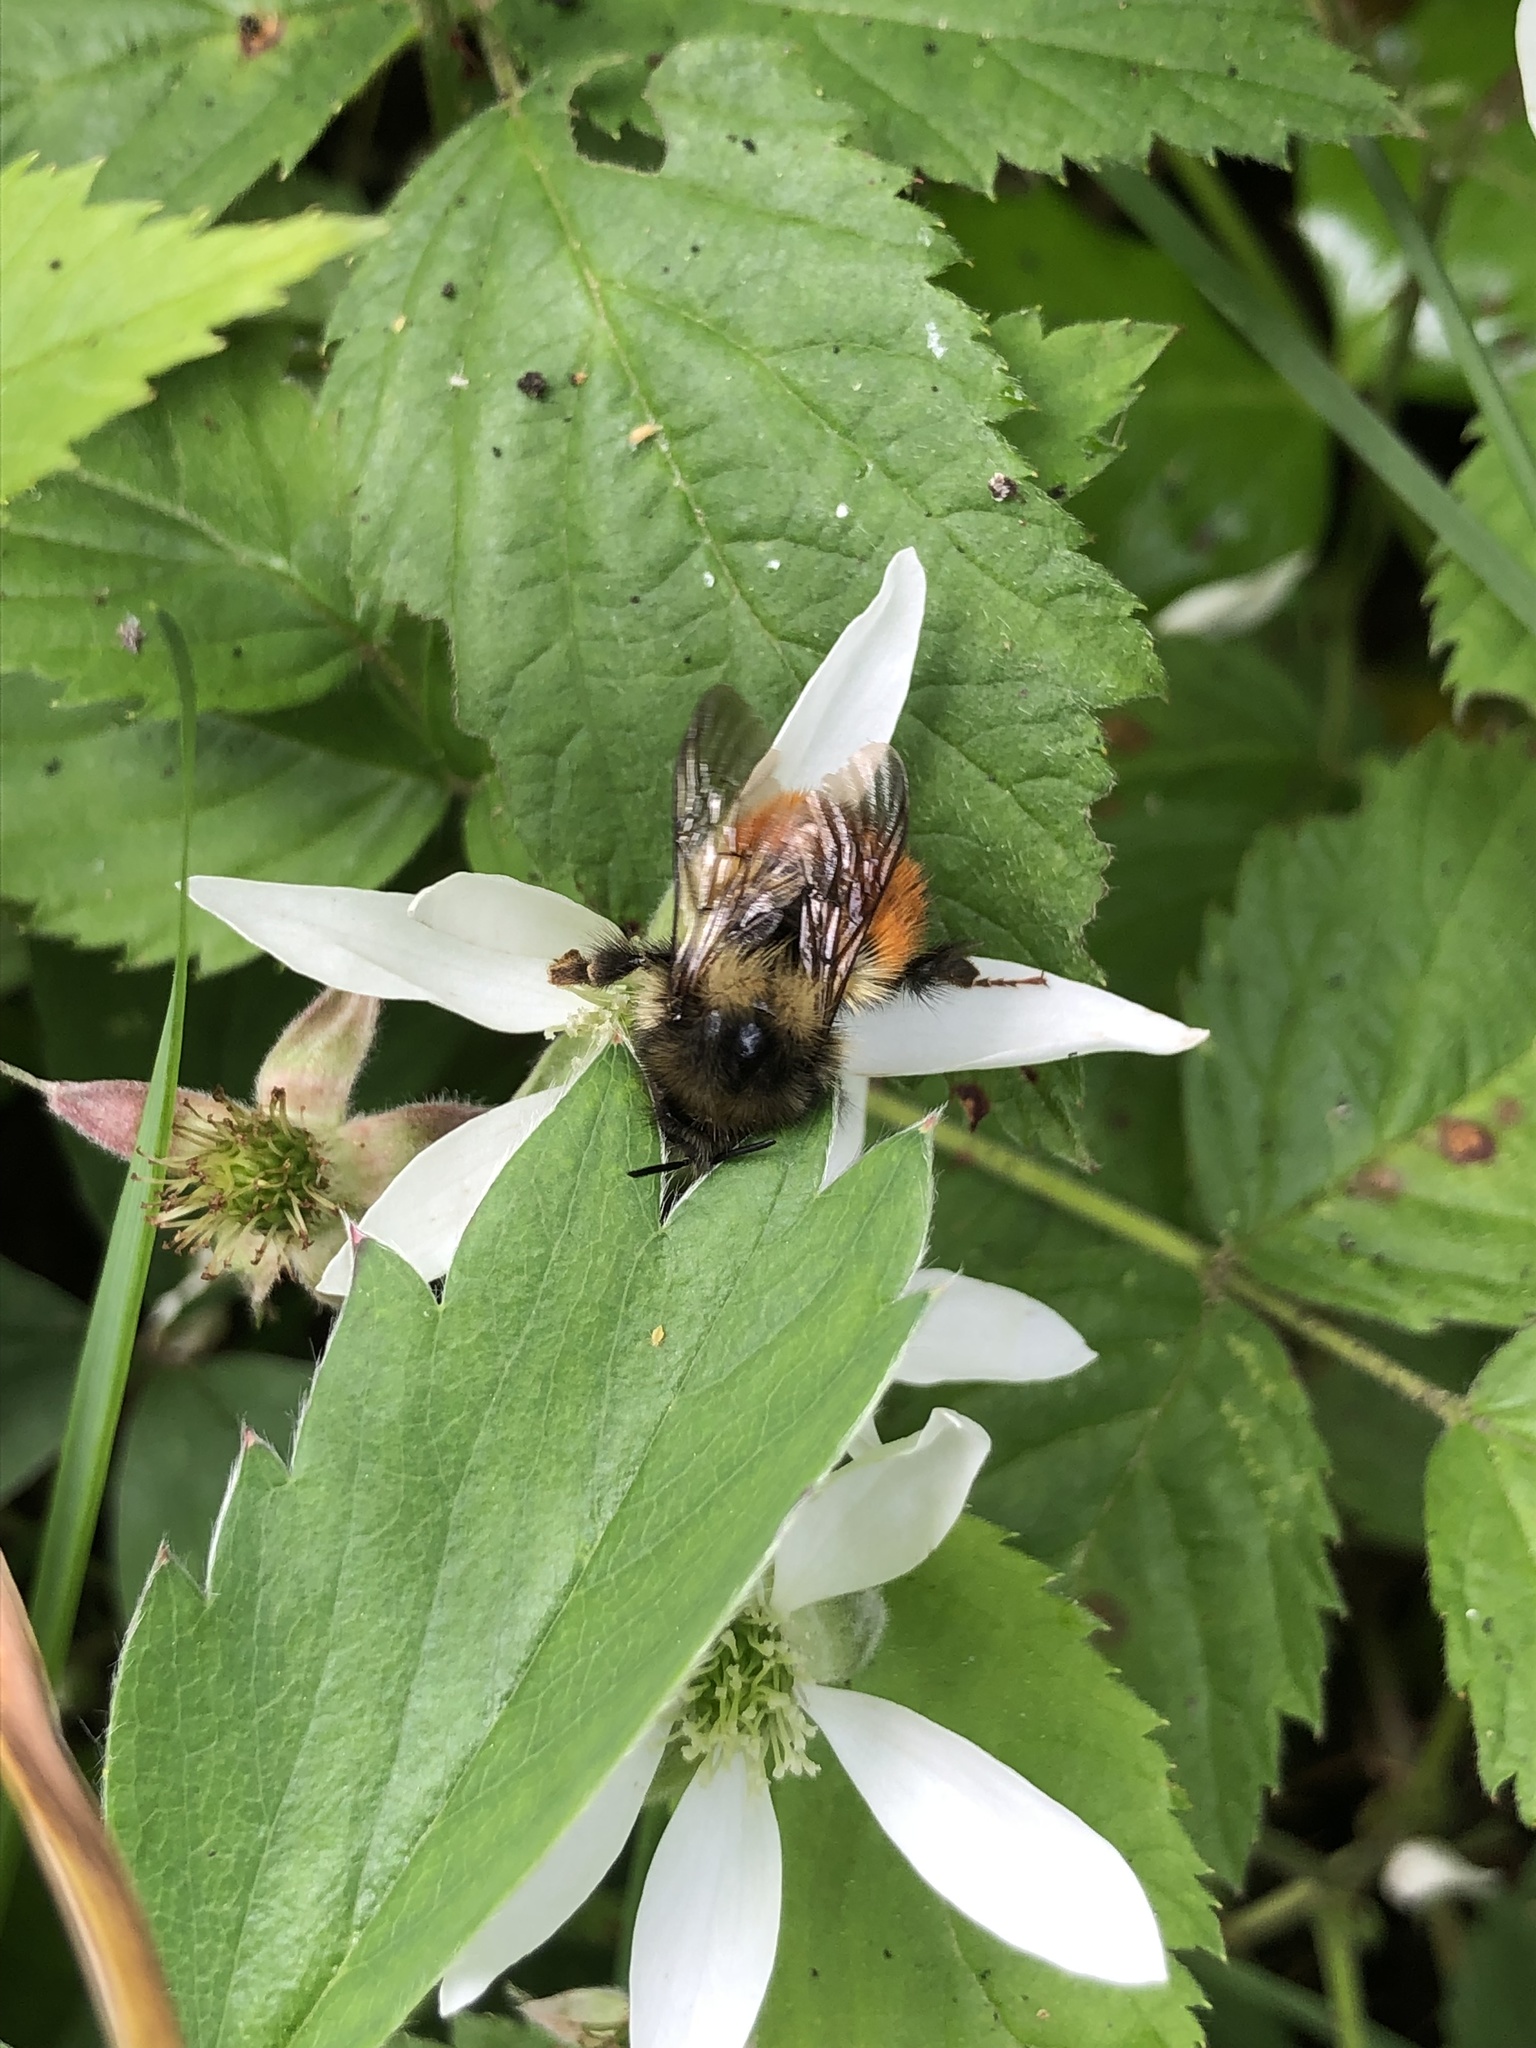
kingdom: Animalia
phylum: Arthropoda
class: Insecta
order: Hymenoptera
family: Apidae
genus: Bombus
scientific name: Bombus melanopygus
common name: Black tail bumble bee
